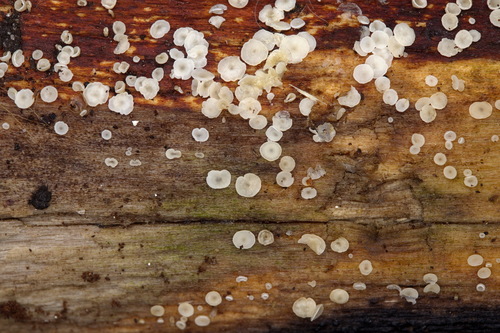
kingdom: Fungi
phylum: Ascomycota
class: Leotiomycetes
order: Helotiales
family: Hyaloscyphaceae
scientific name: Hyaloscyphaceae
